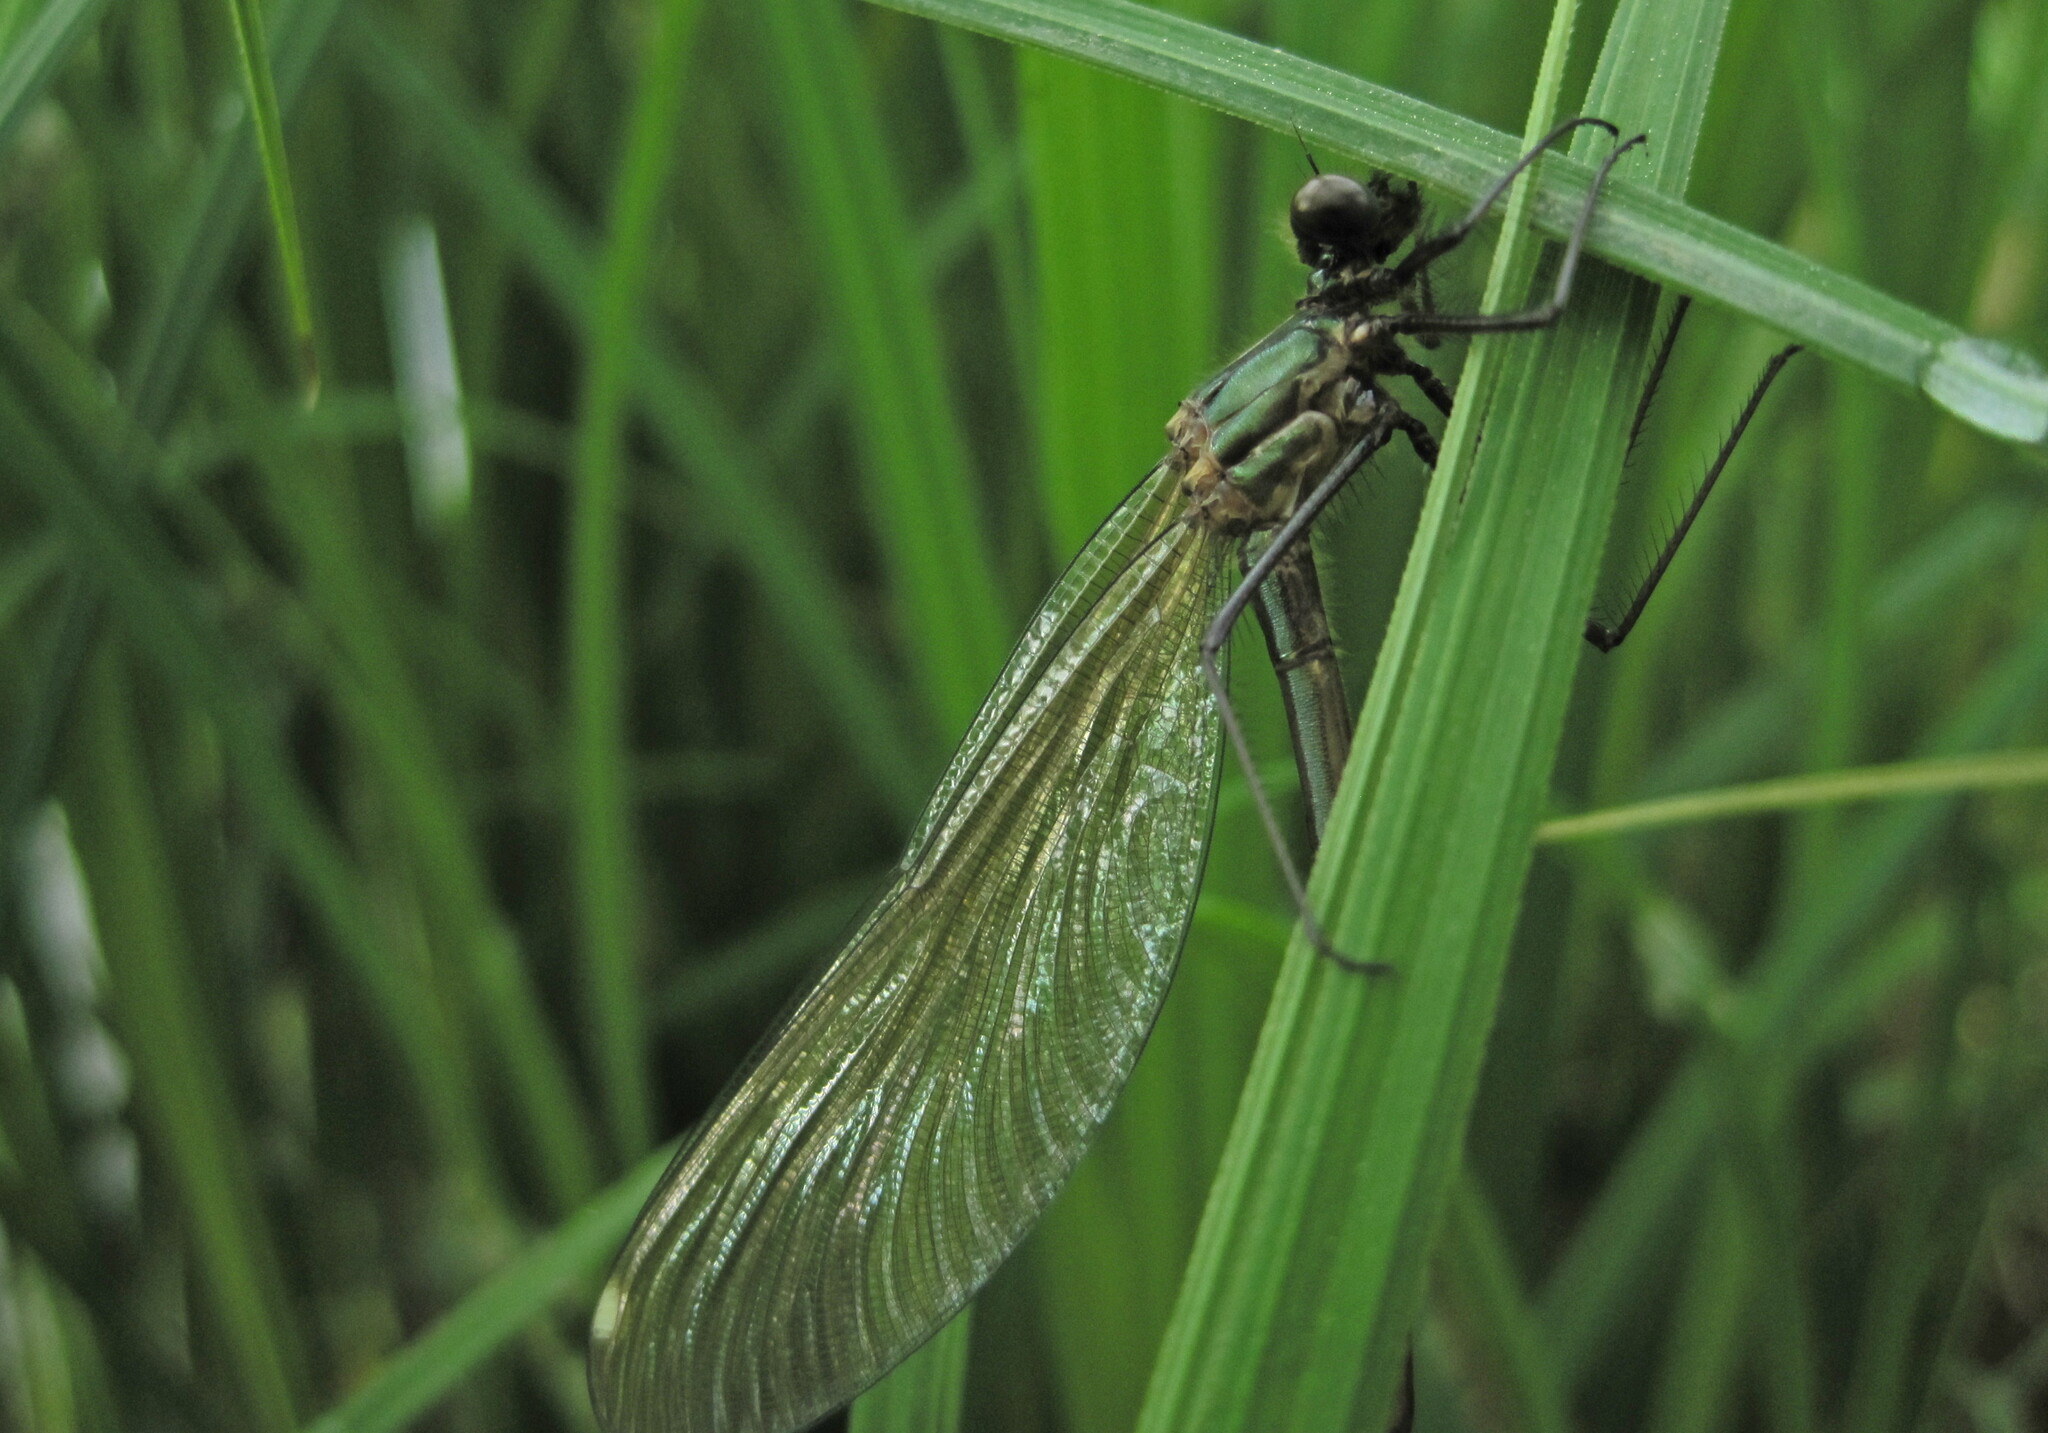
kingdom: Animalia
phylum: Arthropoda
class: Insecta
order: Odonata
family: Calopterygidae
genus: Calopteryx
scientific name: Calopteryx splendens
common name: Banded demoiselle
